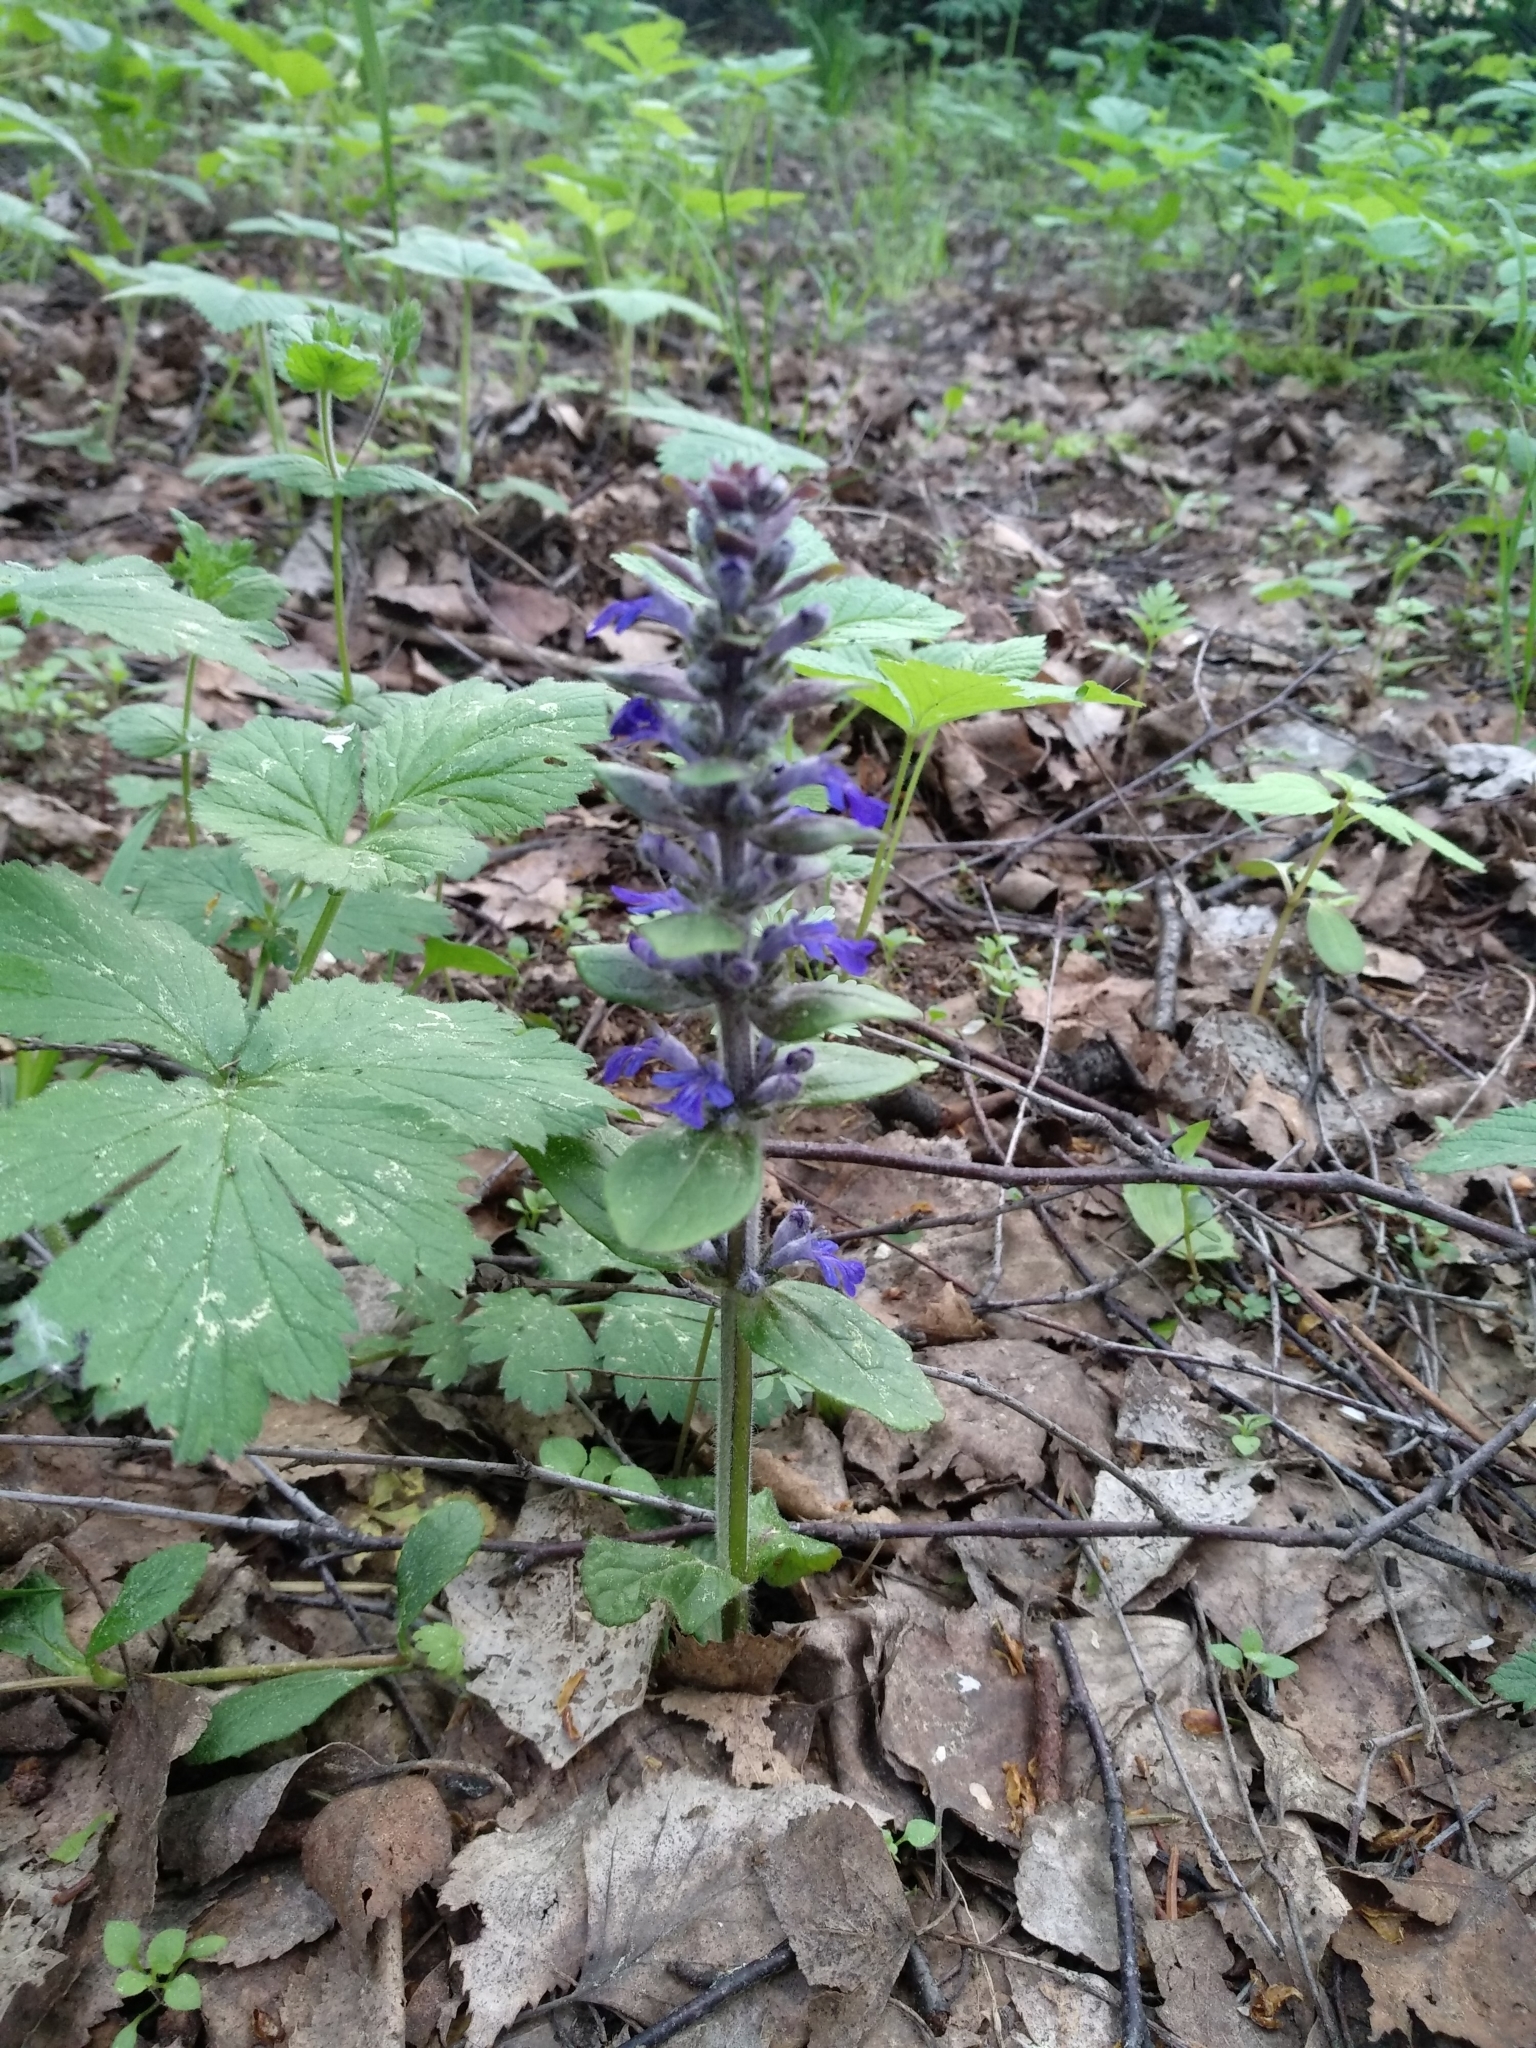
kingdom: Plantae
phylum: Tracheophyta
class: Magnoliopsida
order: Lamiales
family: Lamiaceae
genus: Ajuga
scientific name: Ajuga reptans
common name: Bugle
